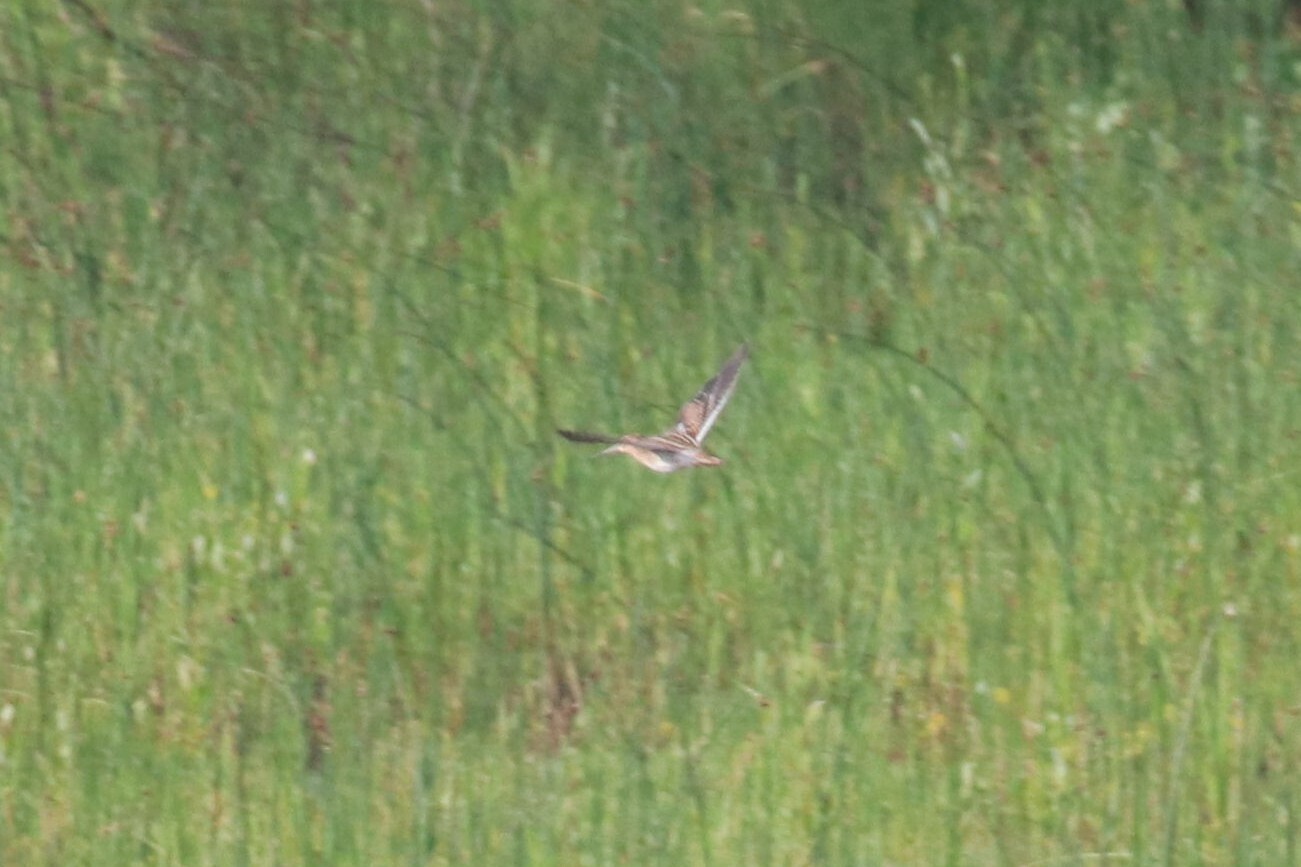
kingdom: Animalia
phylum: Chordata
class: Aves
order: Charadriiformes
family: Scolopacidae
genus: Gallinago
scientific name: Gallinago gallinago
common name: Common snipe
